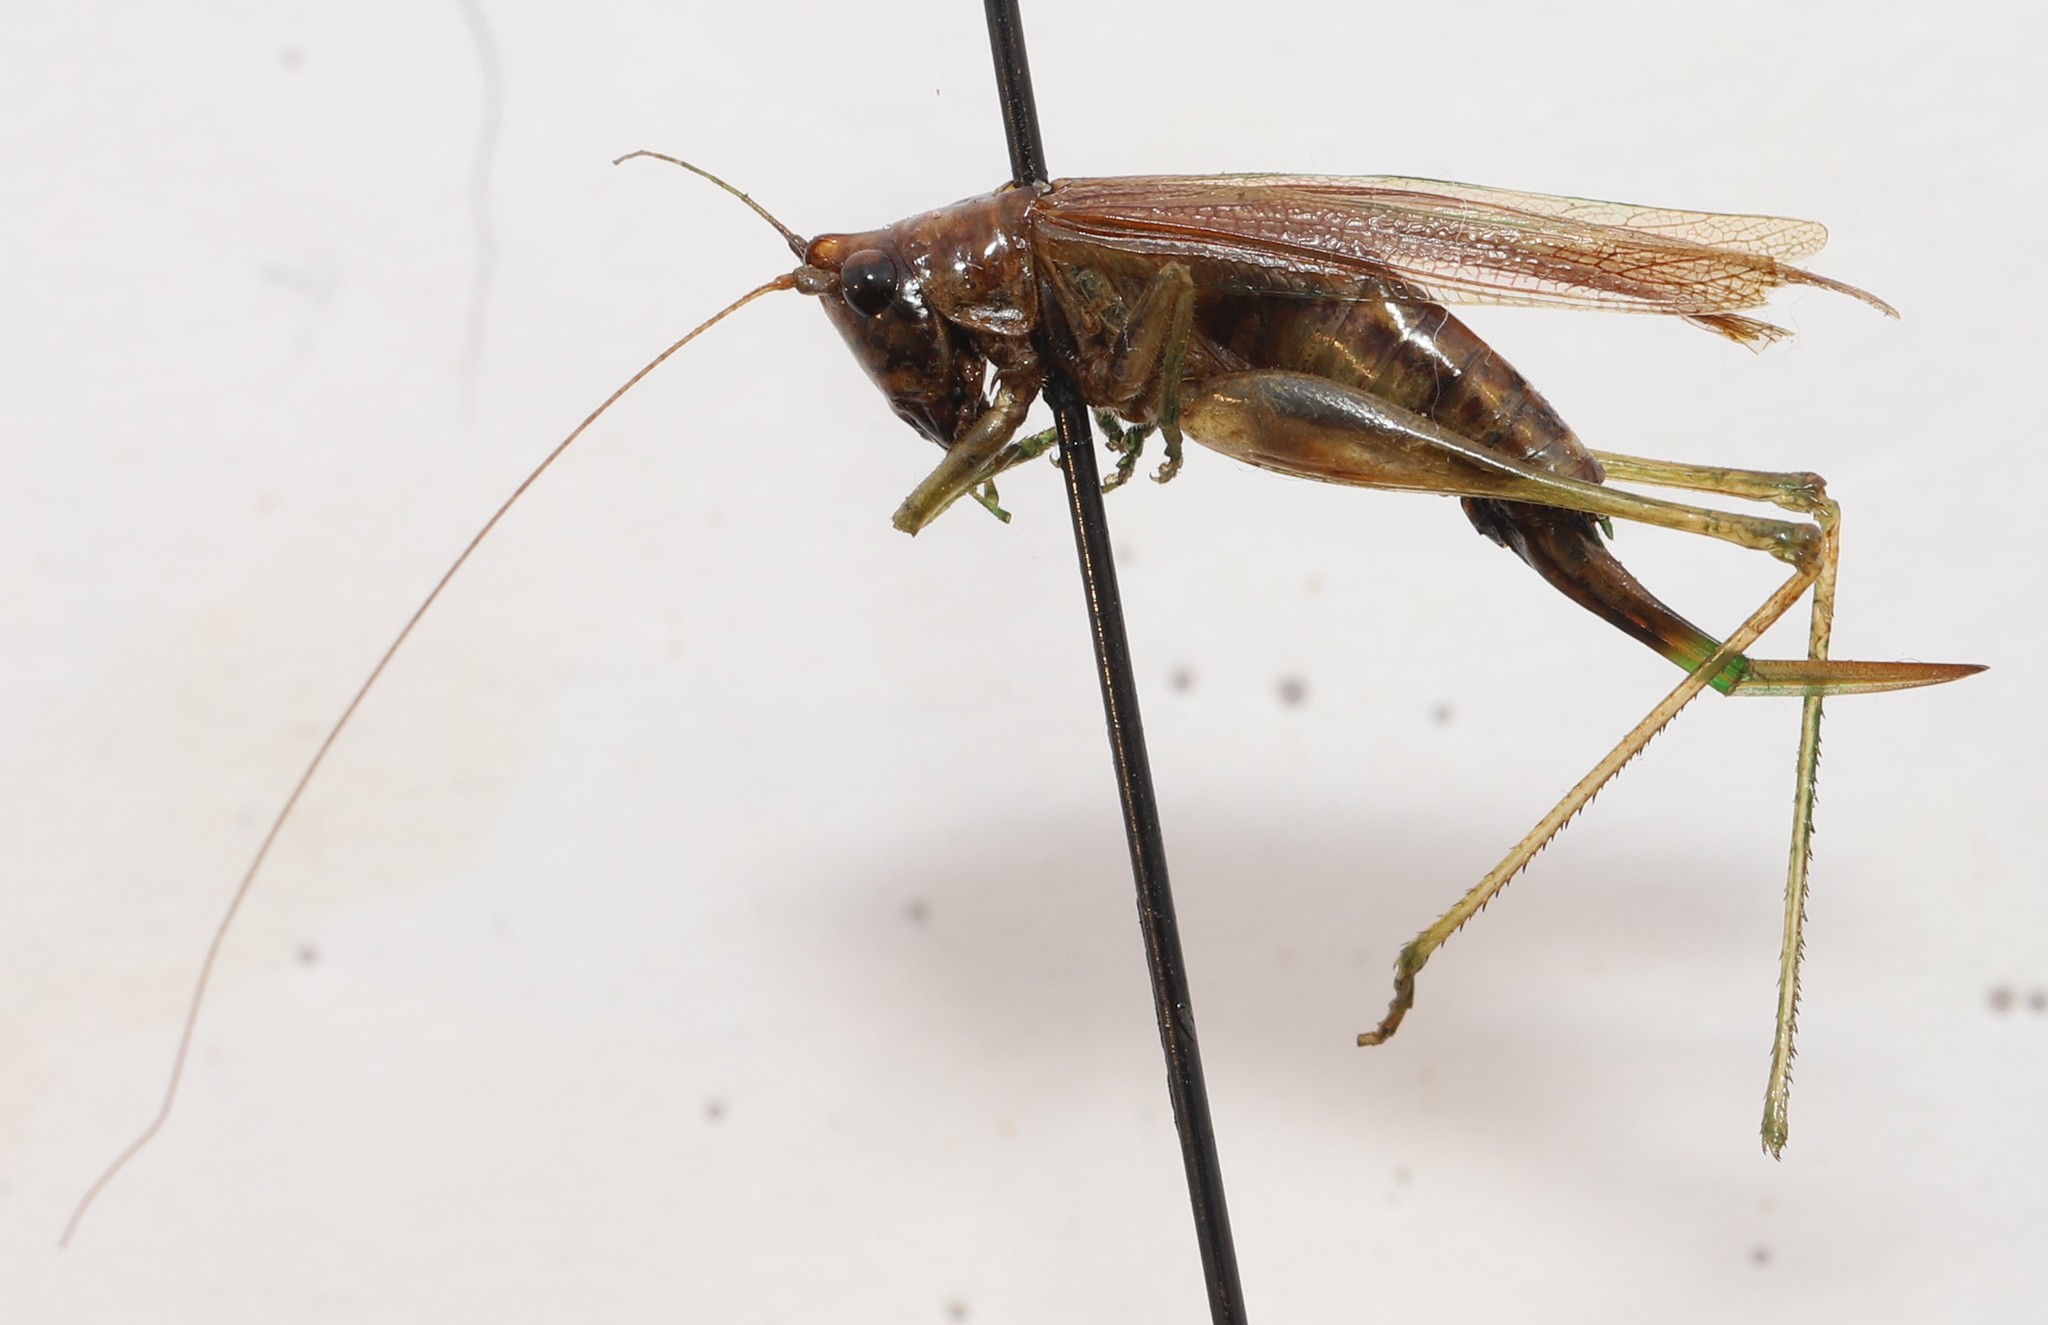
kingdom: Animalia
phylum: Arthropoda
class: Insecta
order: Orthoptera
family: Tettigoniidae
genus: Conocephalus
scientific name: Conocephalus fasciatus
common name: Slender meadow katydid
